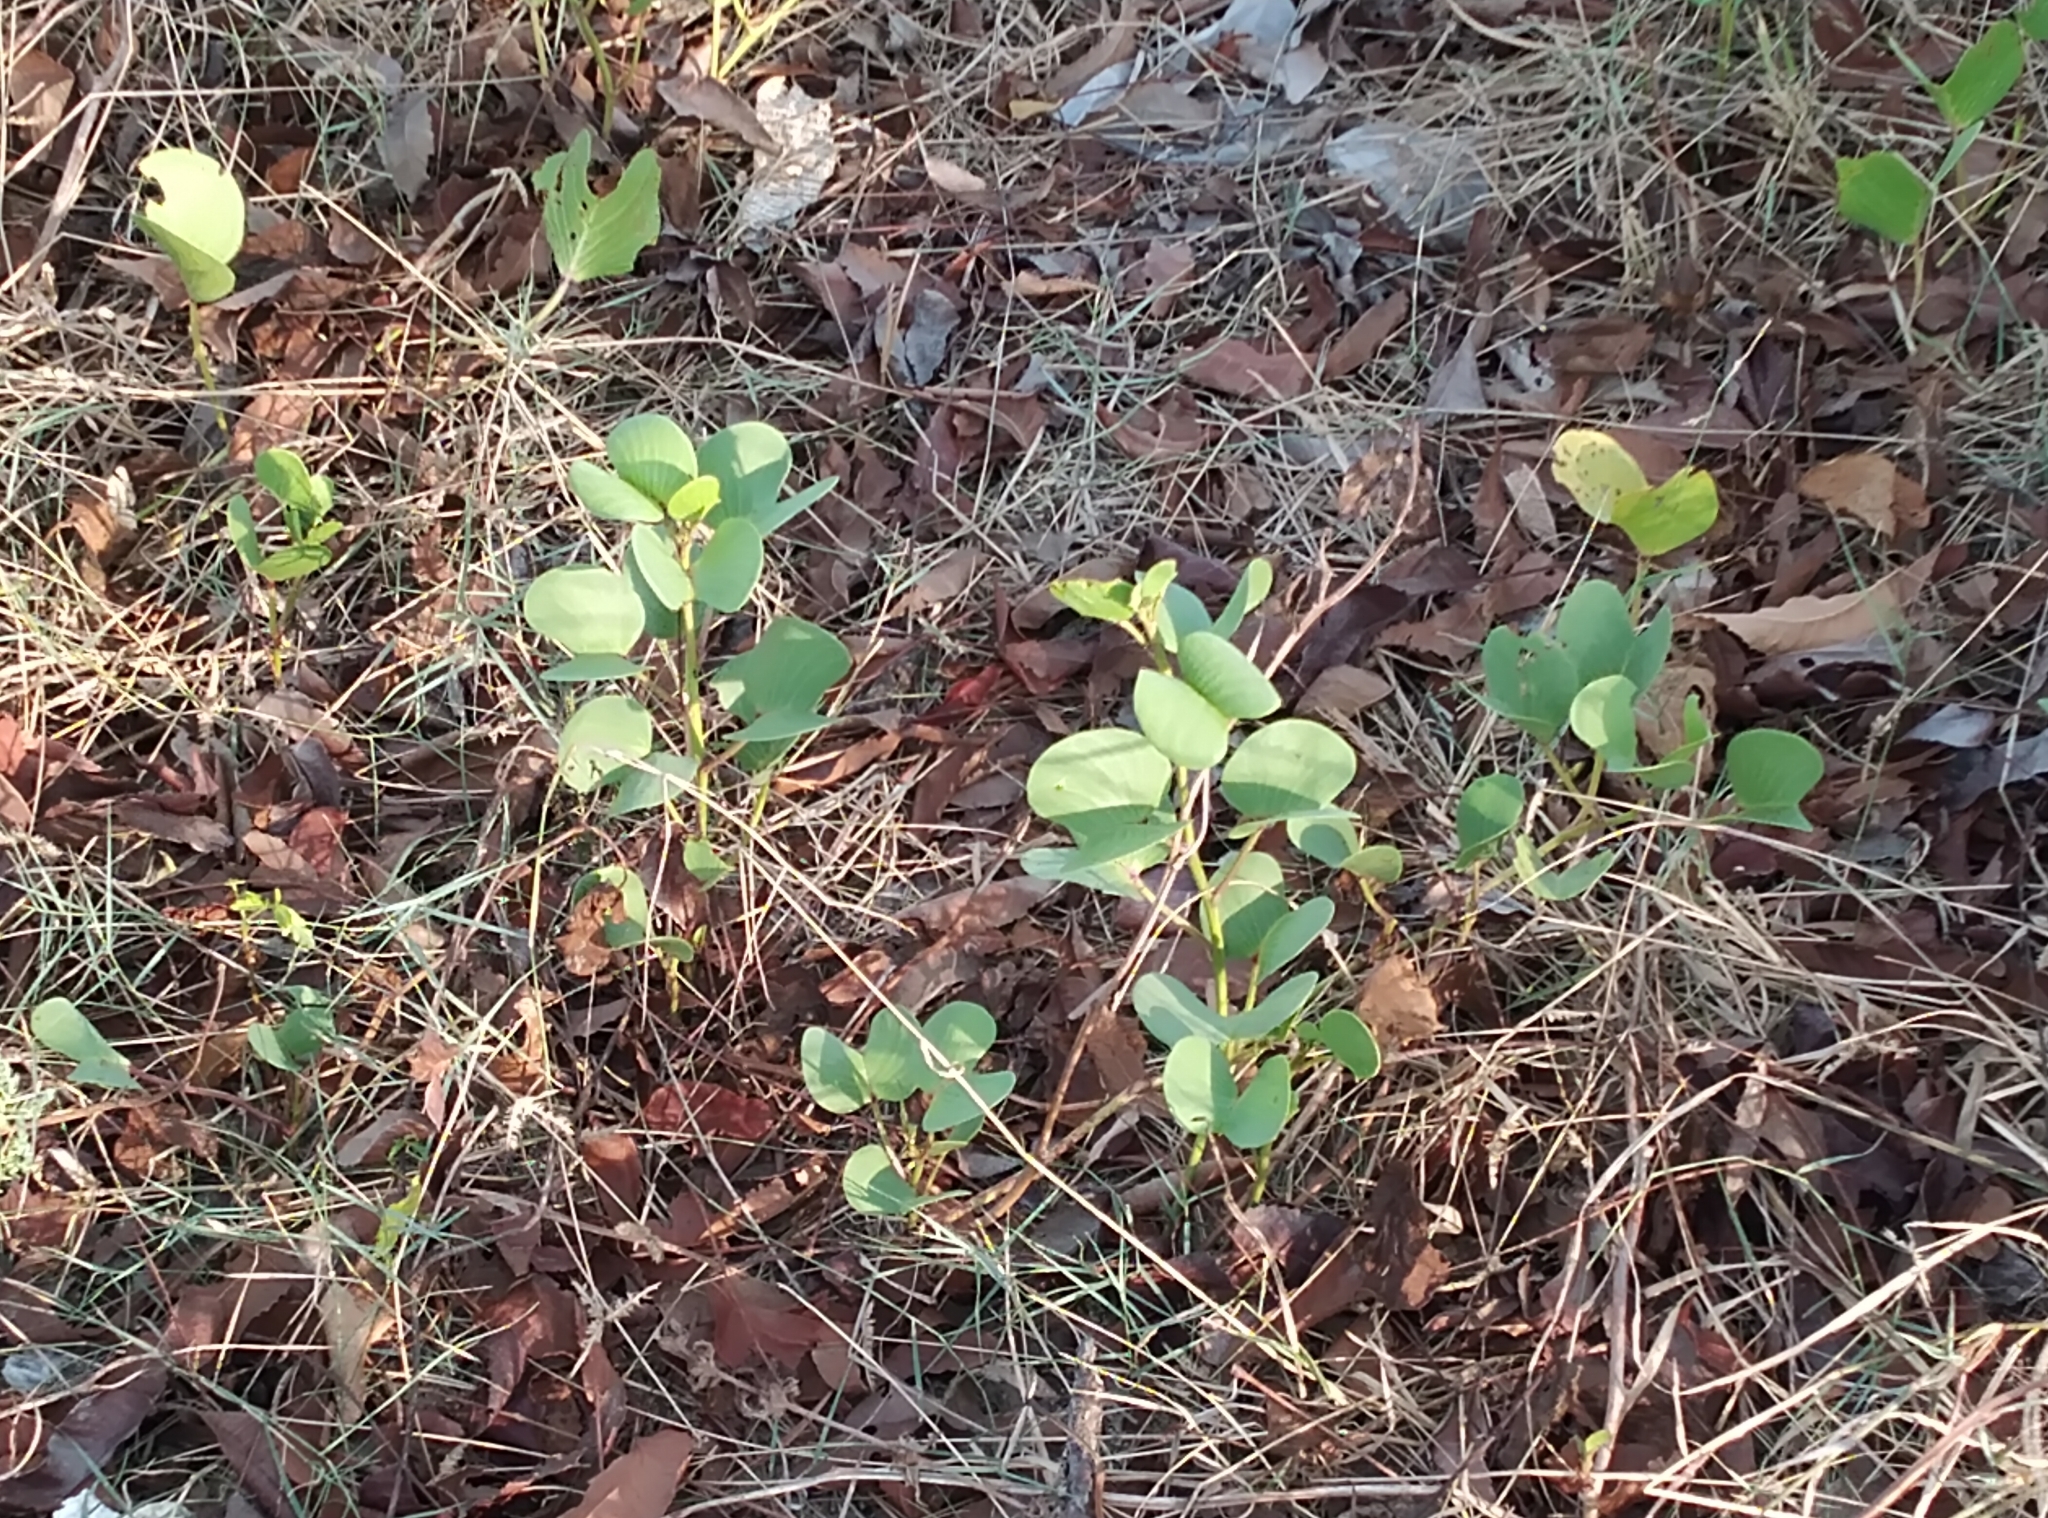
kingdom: Plantae
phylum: Tracheophyta
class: Magnoliopsida
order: Solanales
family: Convolvulaceae
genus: Ipomoea
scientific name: Ipomoea pes-caprae
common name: Beach morning glory
